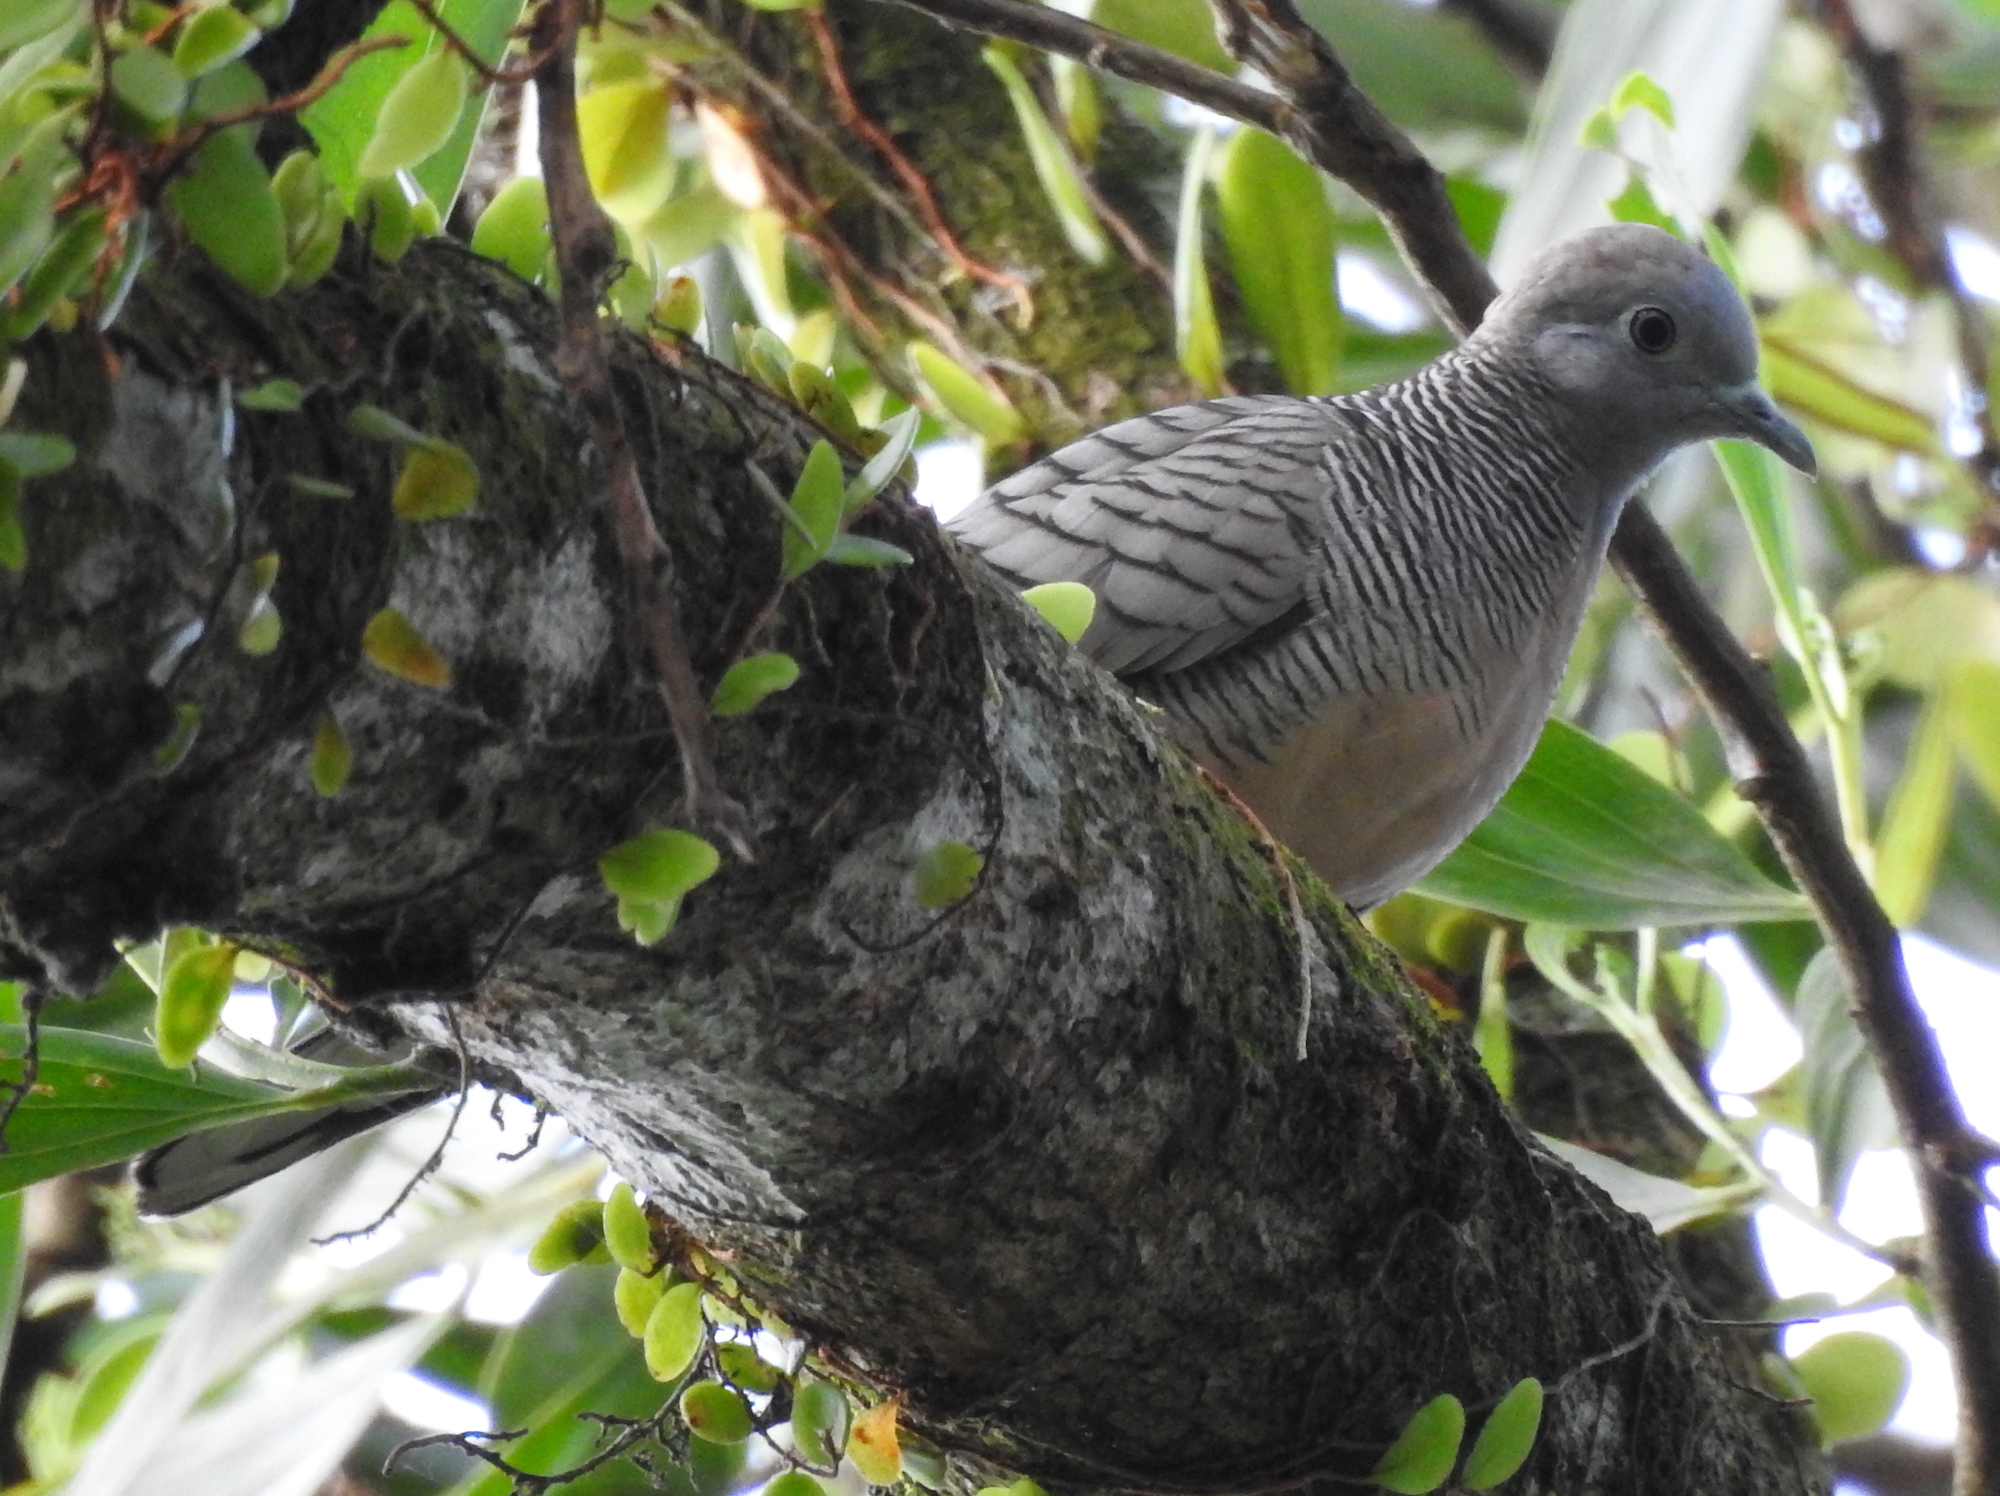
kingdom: Animalia
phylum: Chordata
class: Aves
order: Columbiformes
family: Columbidae
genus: Geopelia
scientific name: Geopelia striata
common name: Zebra dove
